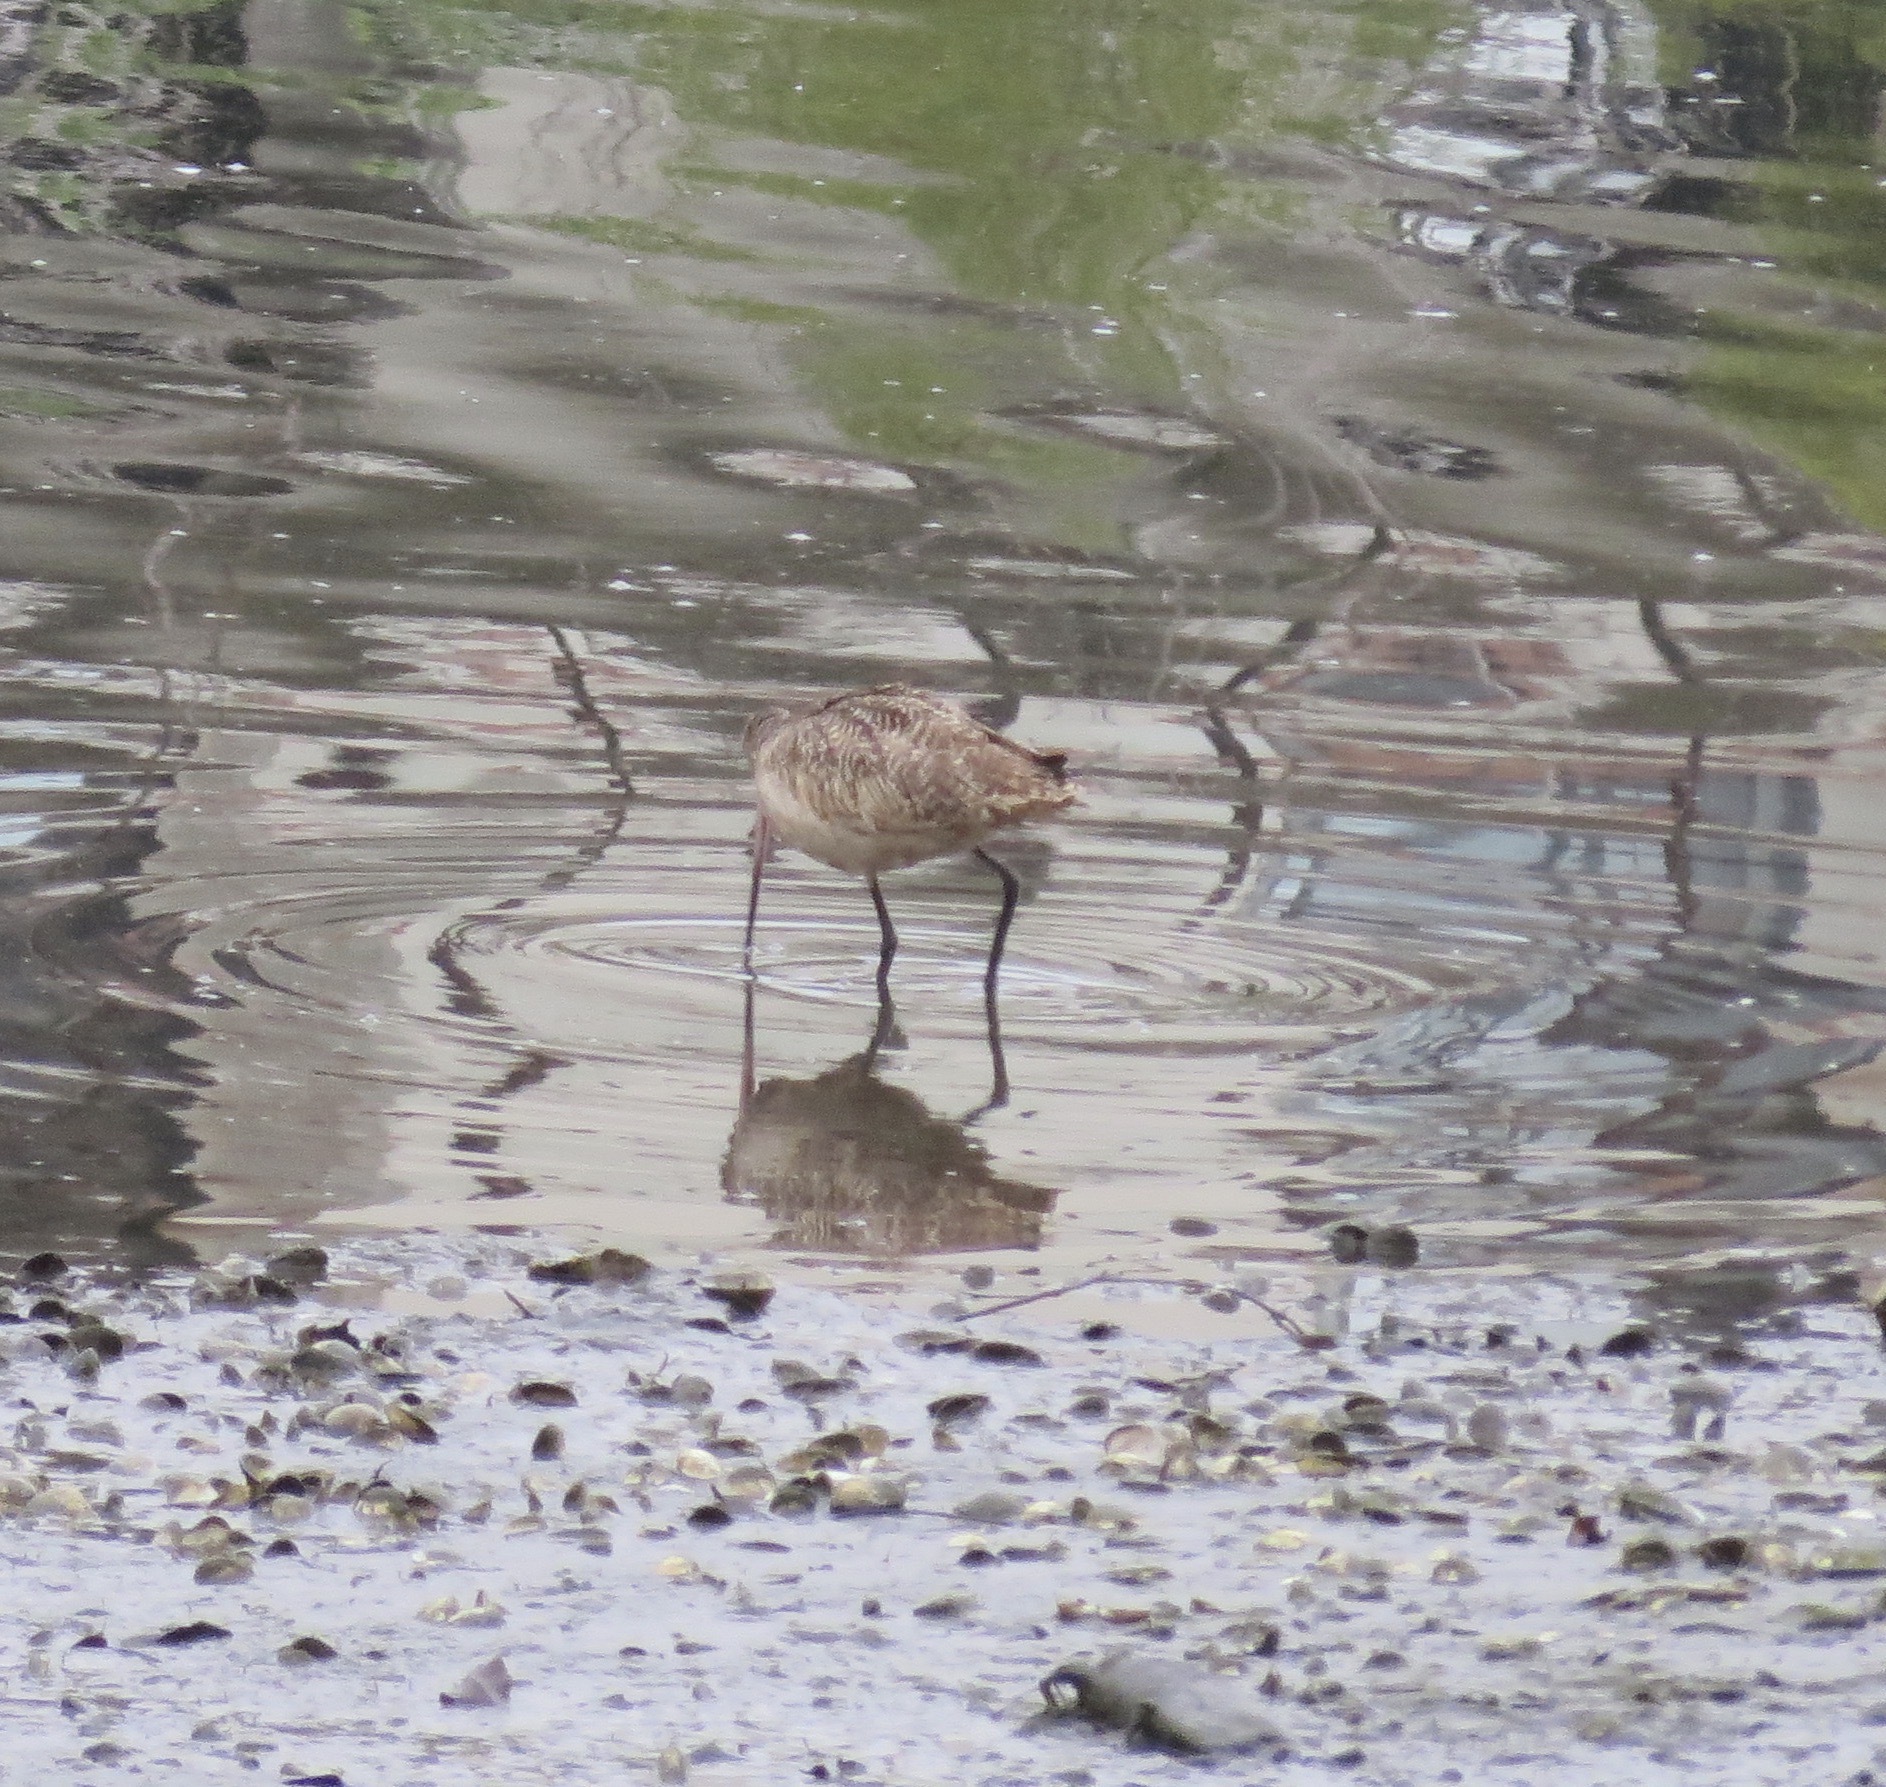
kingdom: Animalia
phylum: Chordata
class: Aves
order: Charadriiformes
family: Scolopacidae
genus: Limosa
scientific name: Limosa fedoa
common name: Marbled godwit
